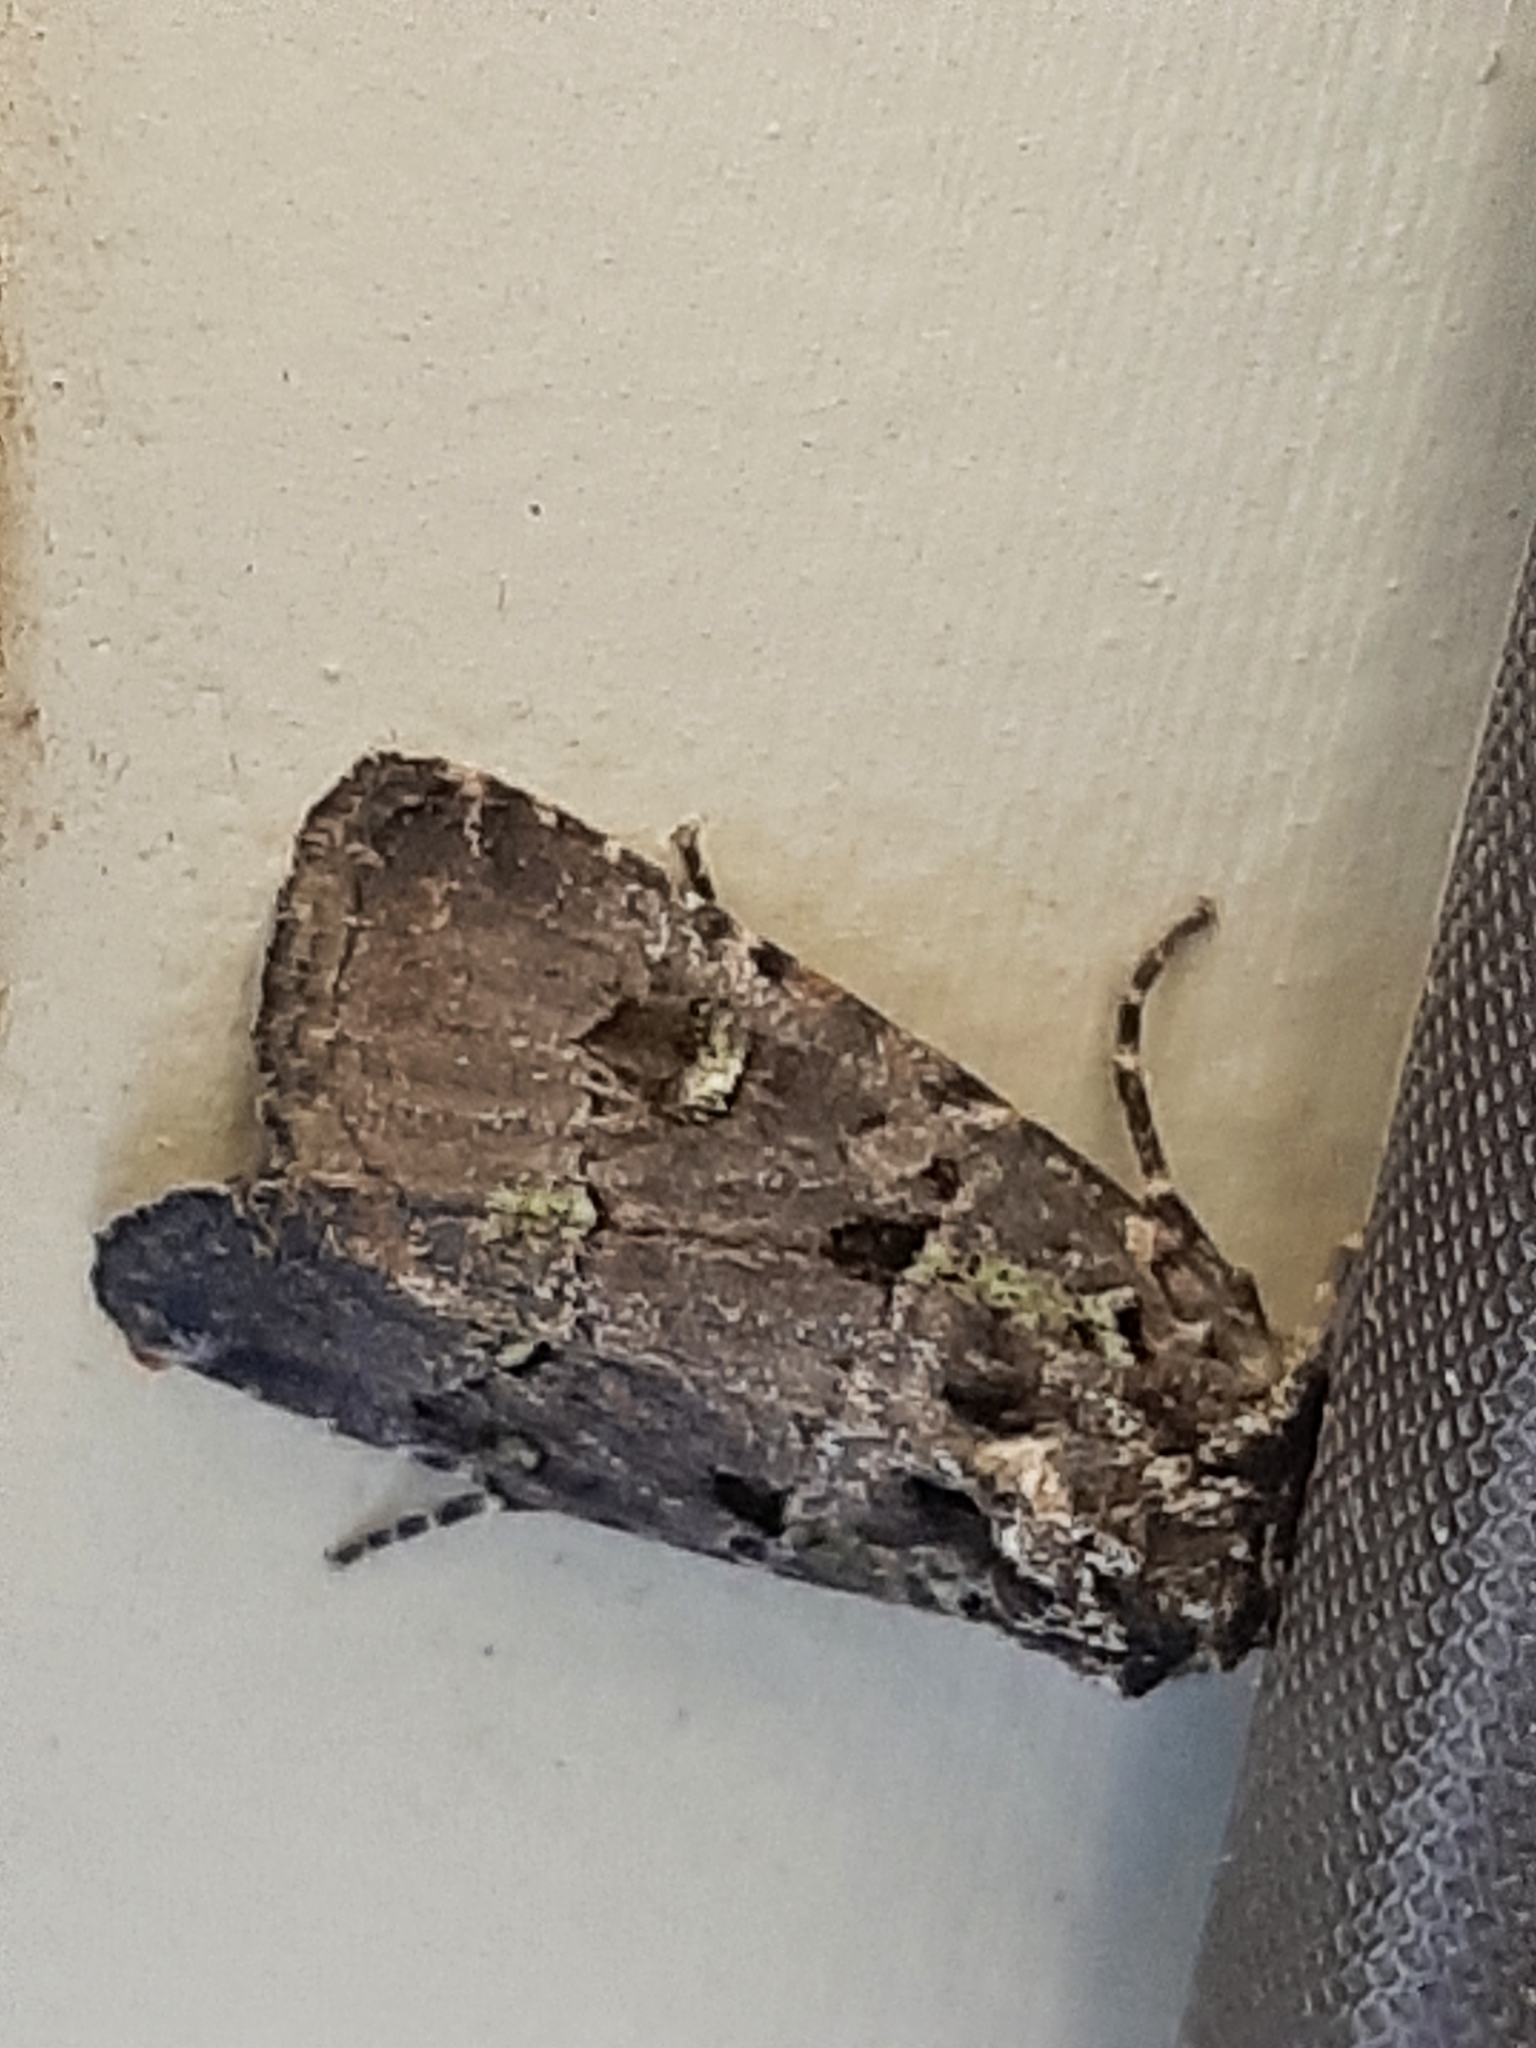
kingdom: Animalia
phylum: Arthropoda
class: Insecta
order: Lepidoptera
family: Noctuidae
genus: Lacinipolia
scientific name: Lacinipolia renigera
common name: Kidney-spotted minor
